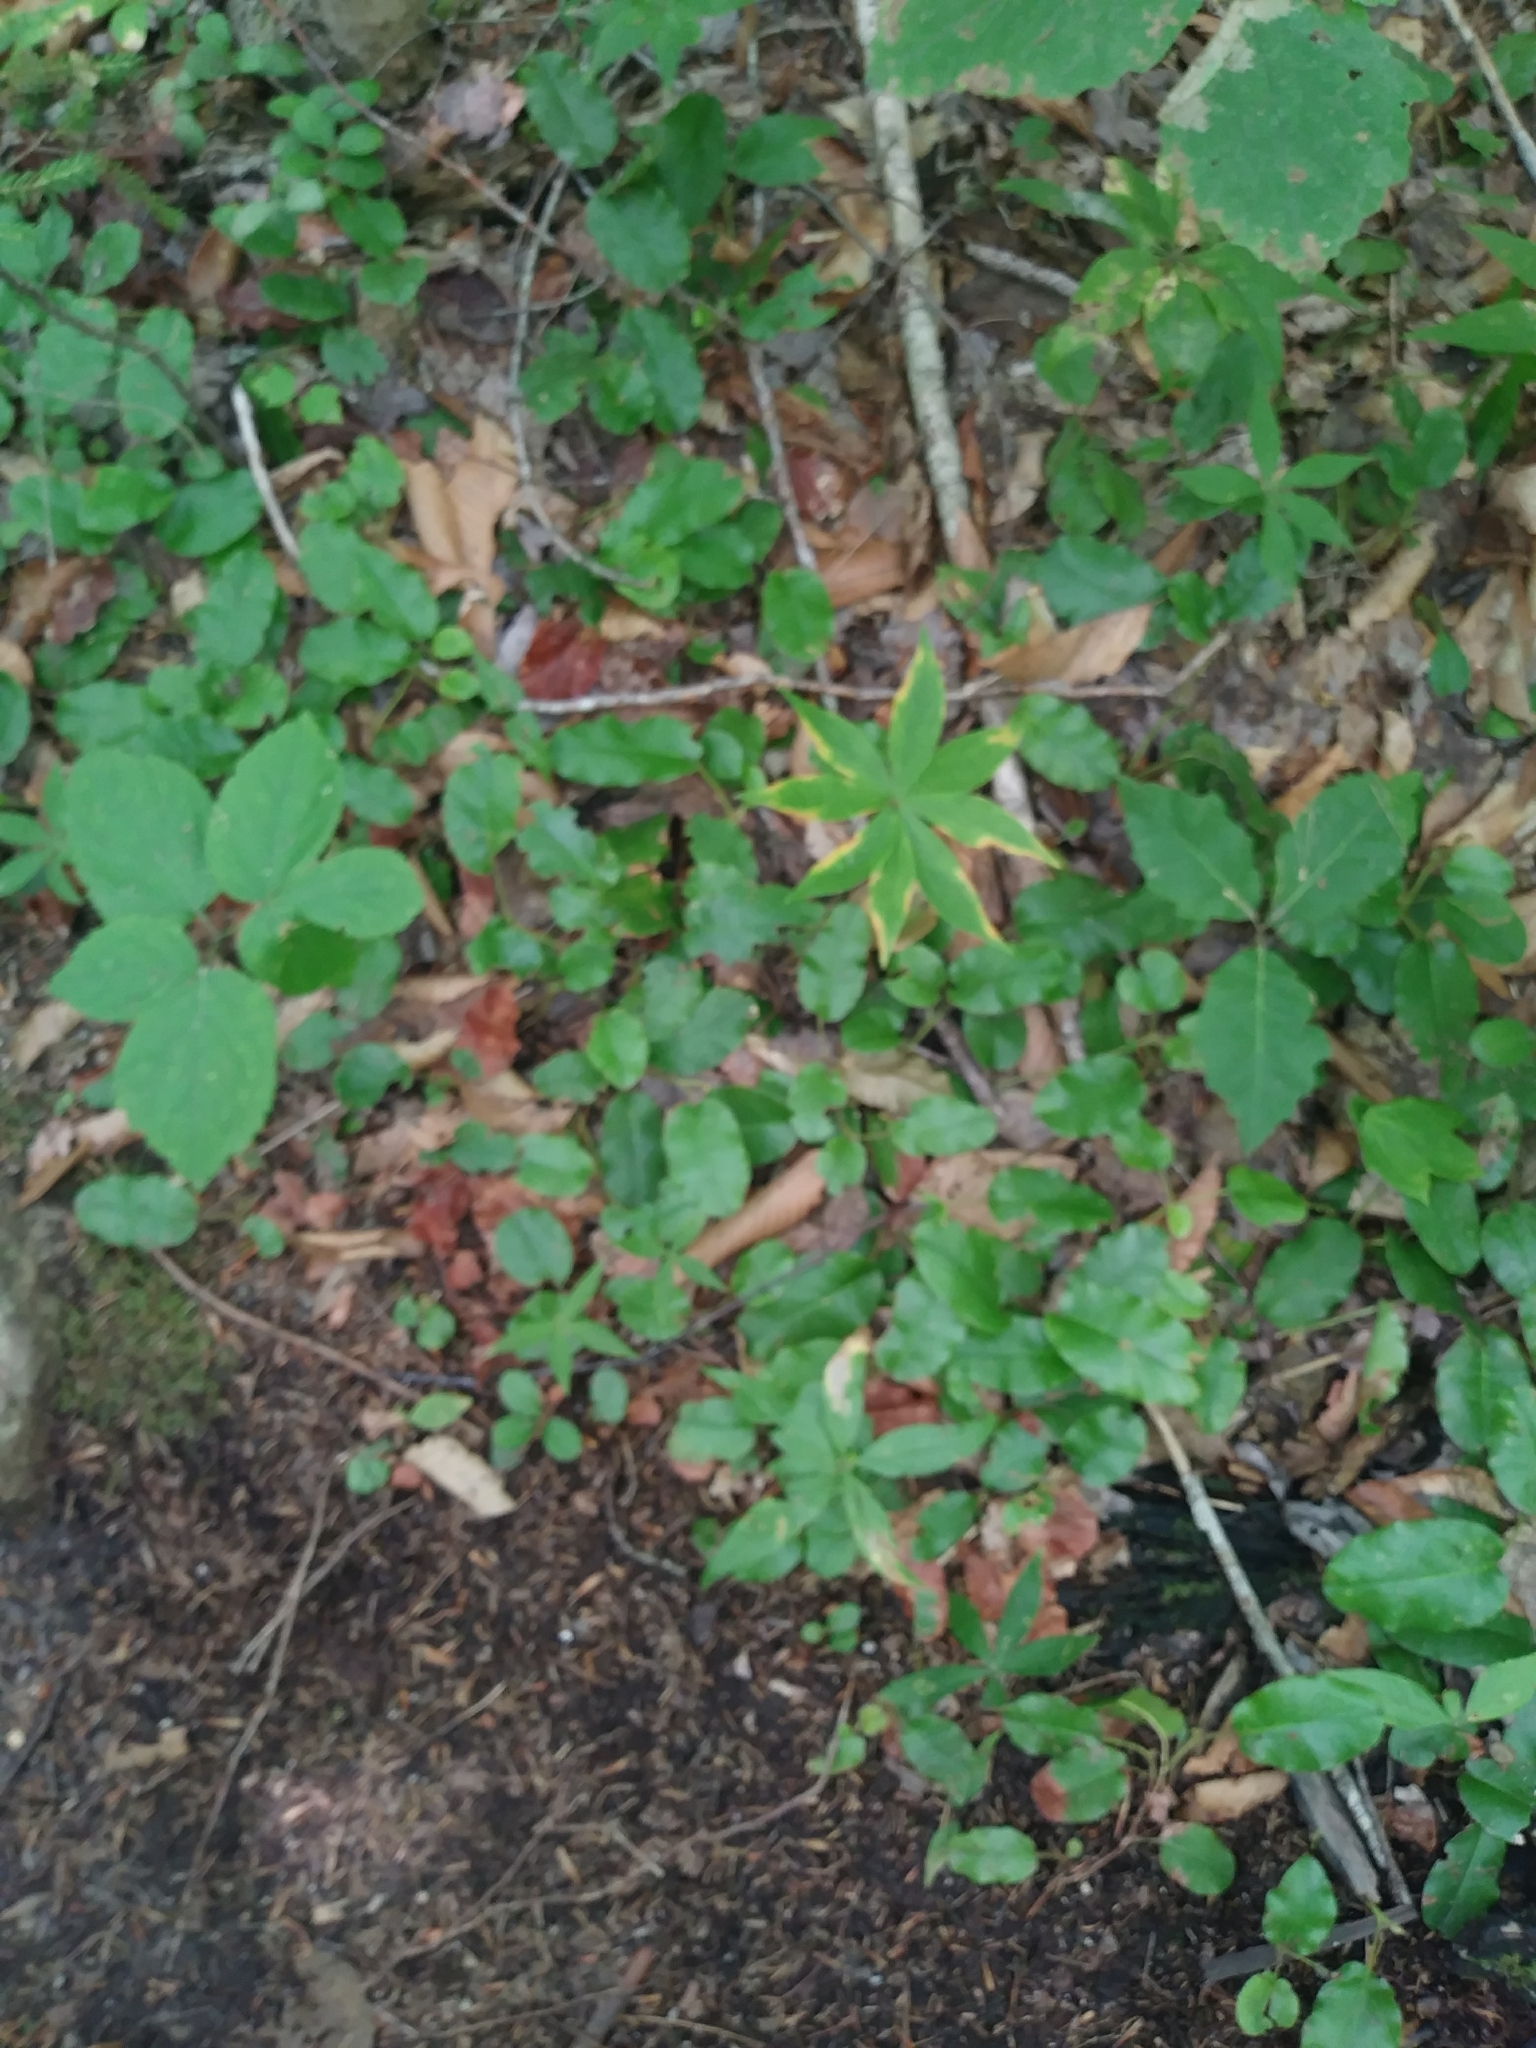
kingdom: Plantae
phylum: Tracheophyta
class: Magnoliopsida
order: Ericales
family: Ericaceae
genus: Epigaea
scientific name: Epigaea repens
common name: Gravelroot
